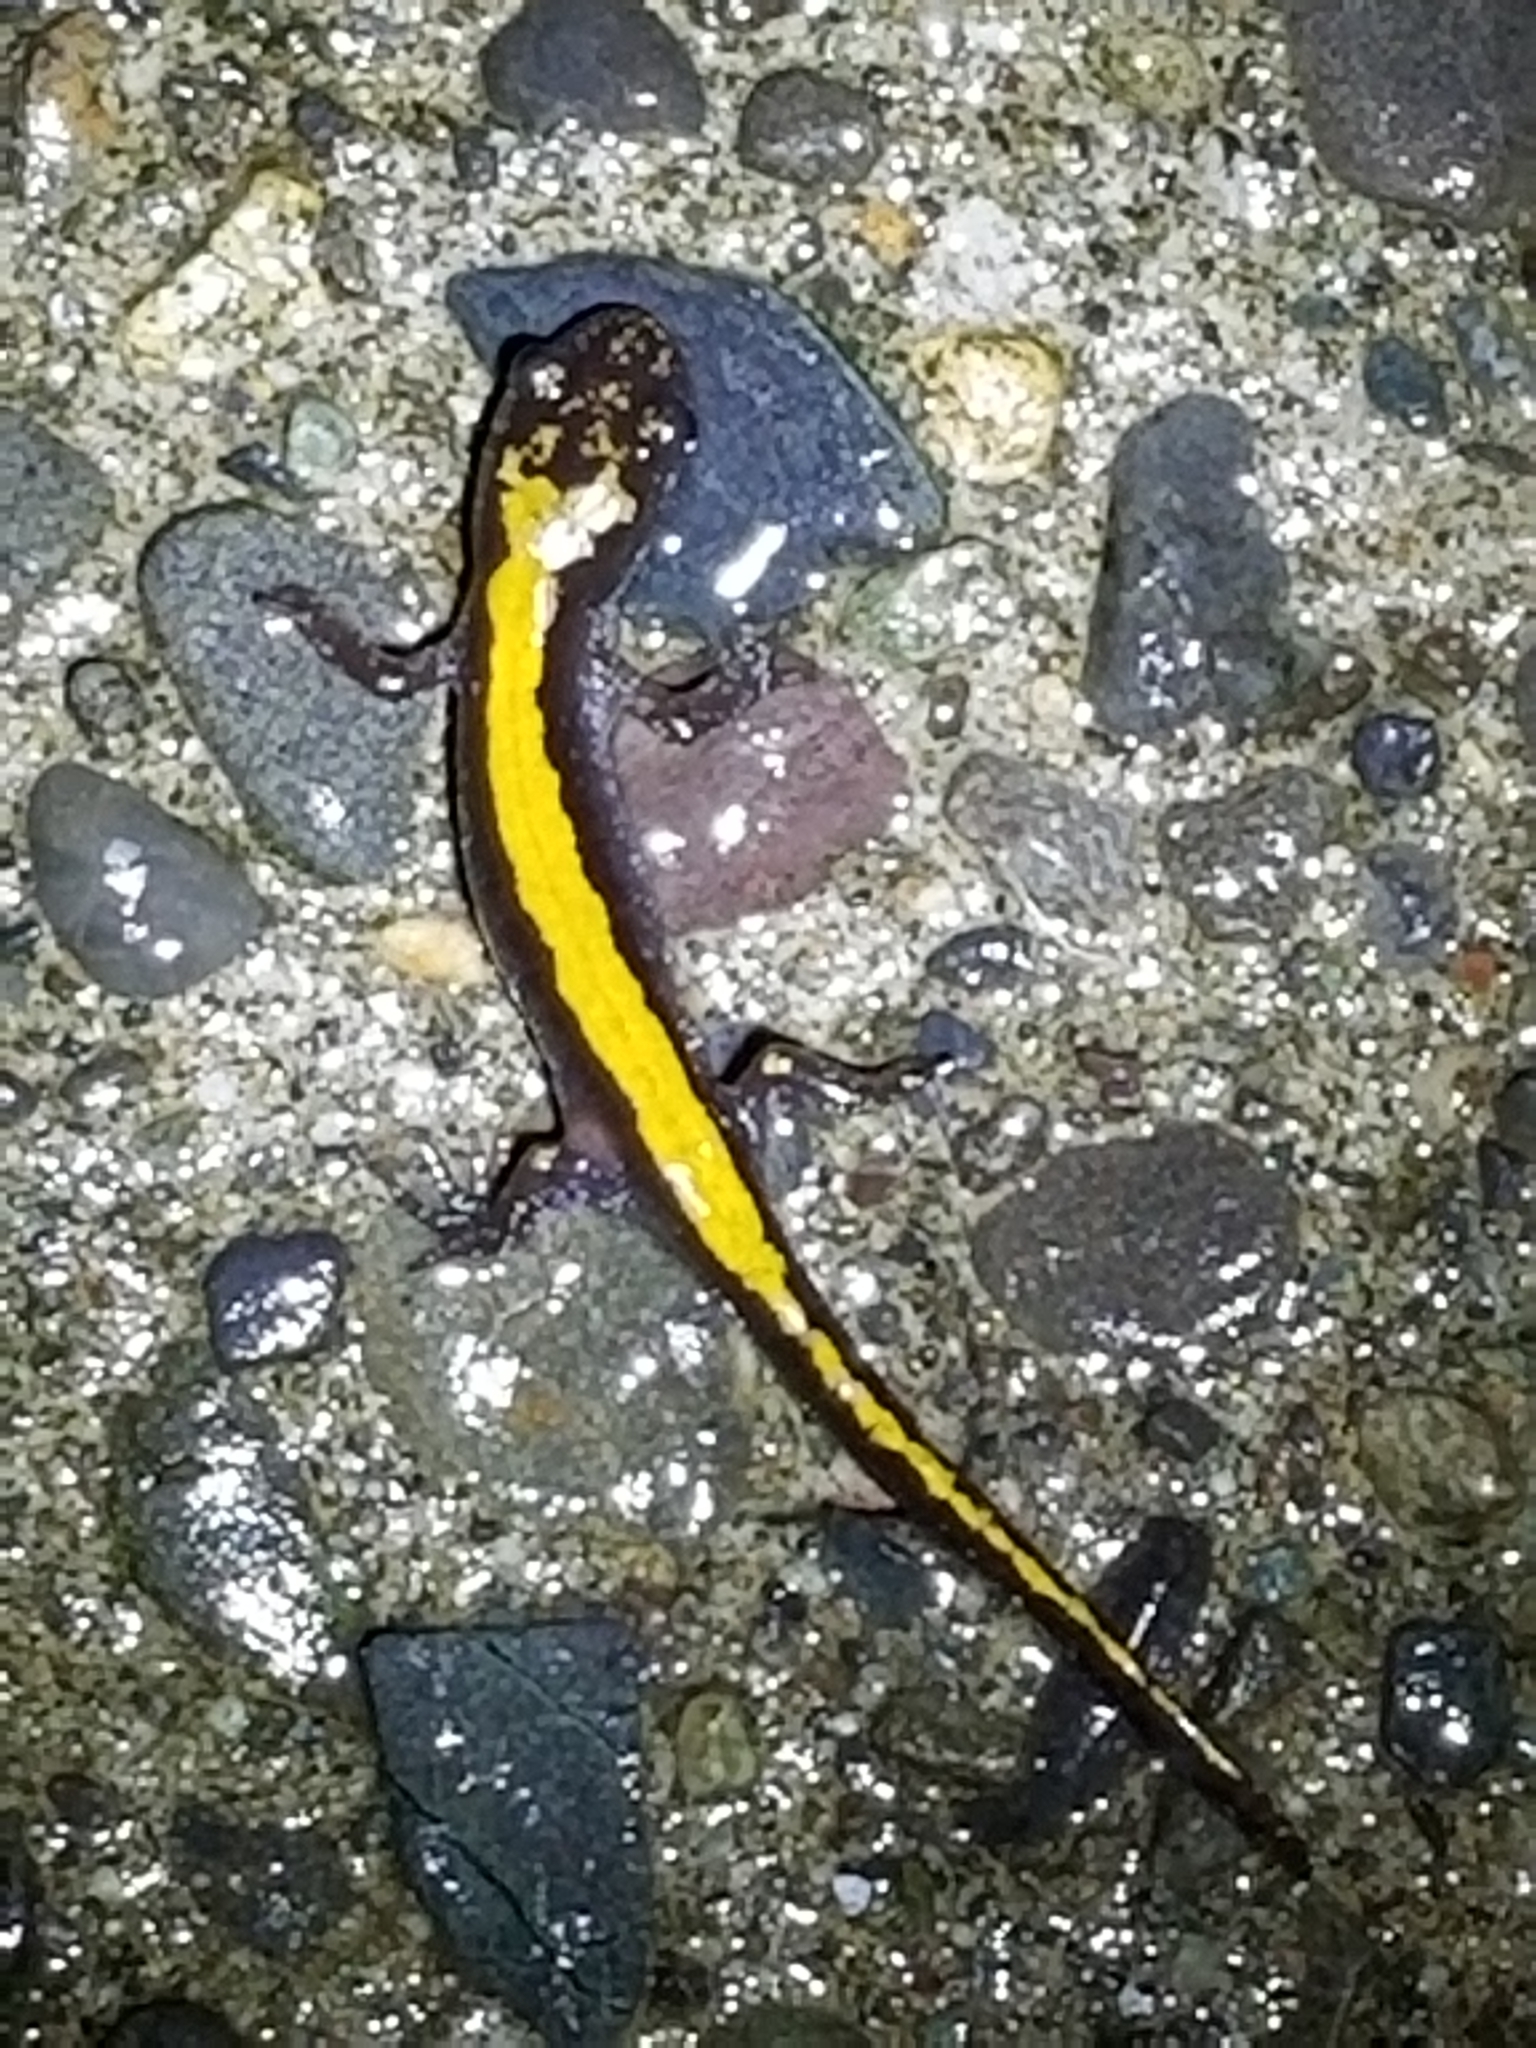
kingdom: Animalia
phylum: Chordata
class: Amphibia
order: Caudata
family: Ambystomatidae
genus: Ambystoma
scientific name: Ambystoma macrodactylum
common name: Long-toed salamander
